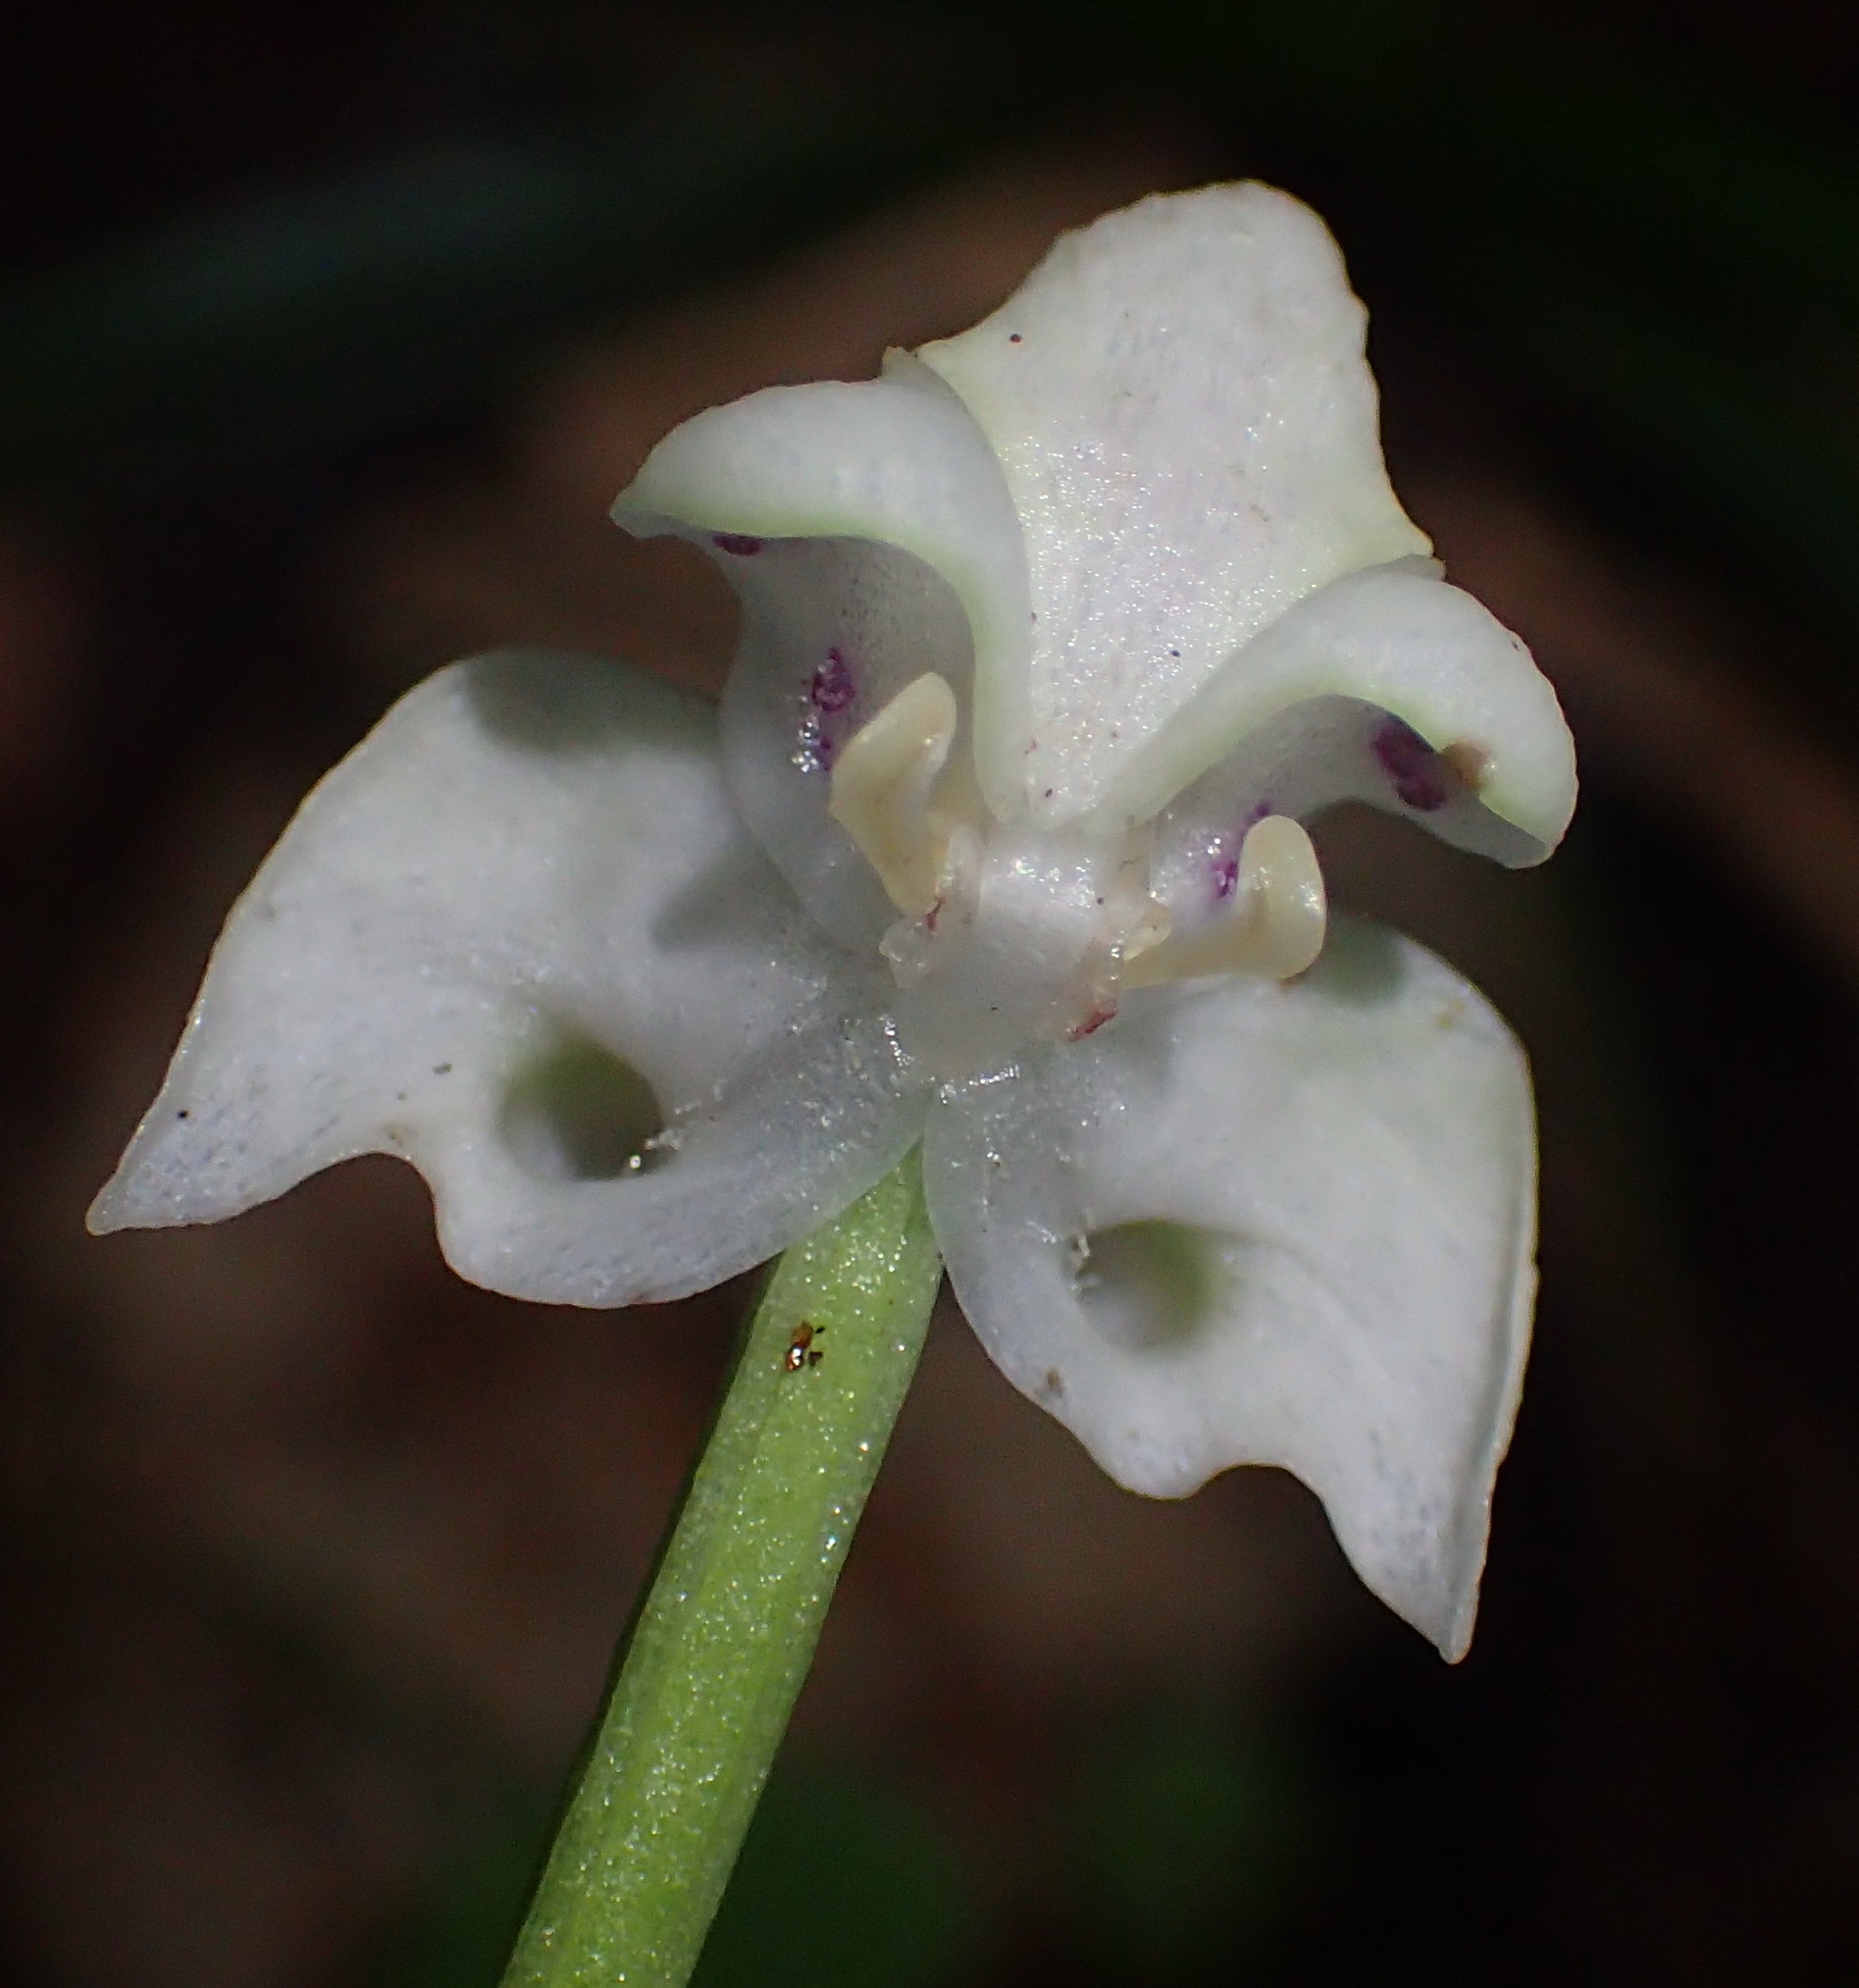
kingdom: Plantae
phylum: Tracheophyta
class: Liliopsida
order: Asparagales
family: Orchidaceae
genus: Disperis
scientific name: Disperis lindleyana
